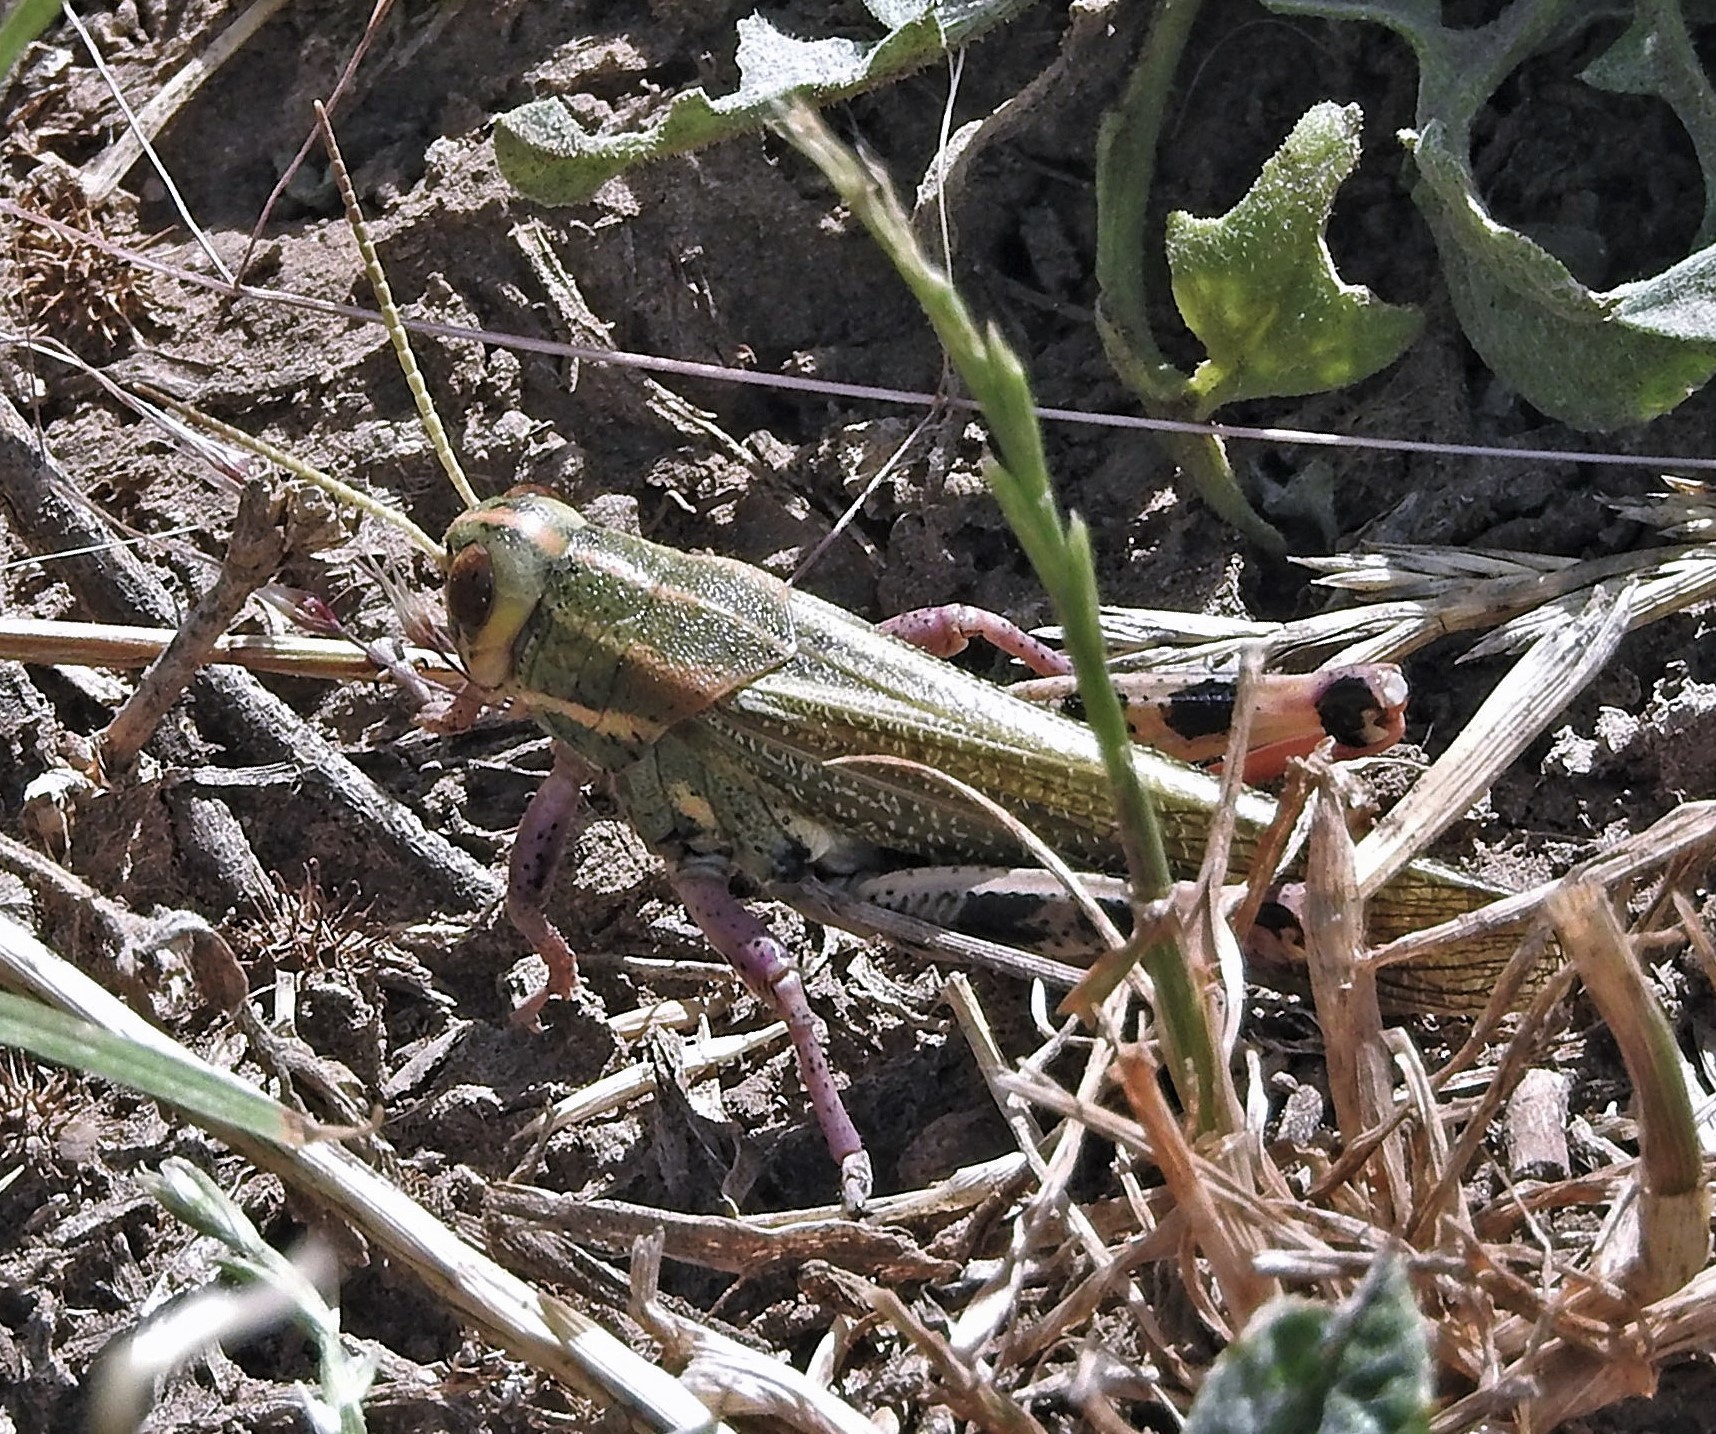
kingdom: Animalia
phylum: Arthropoda
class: Insecta
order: Orthoptera
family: Romaleidae
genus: Diponthus
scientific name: Diponthus dispar
